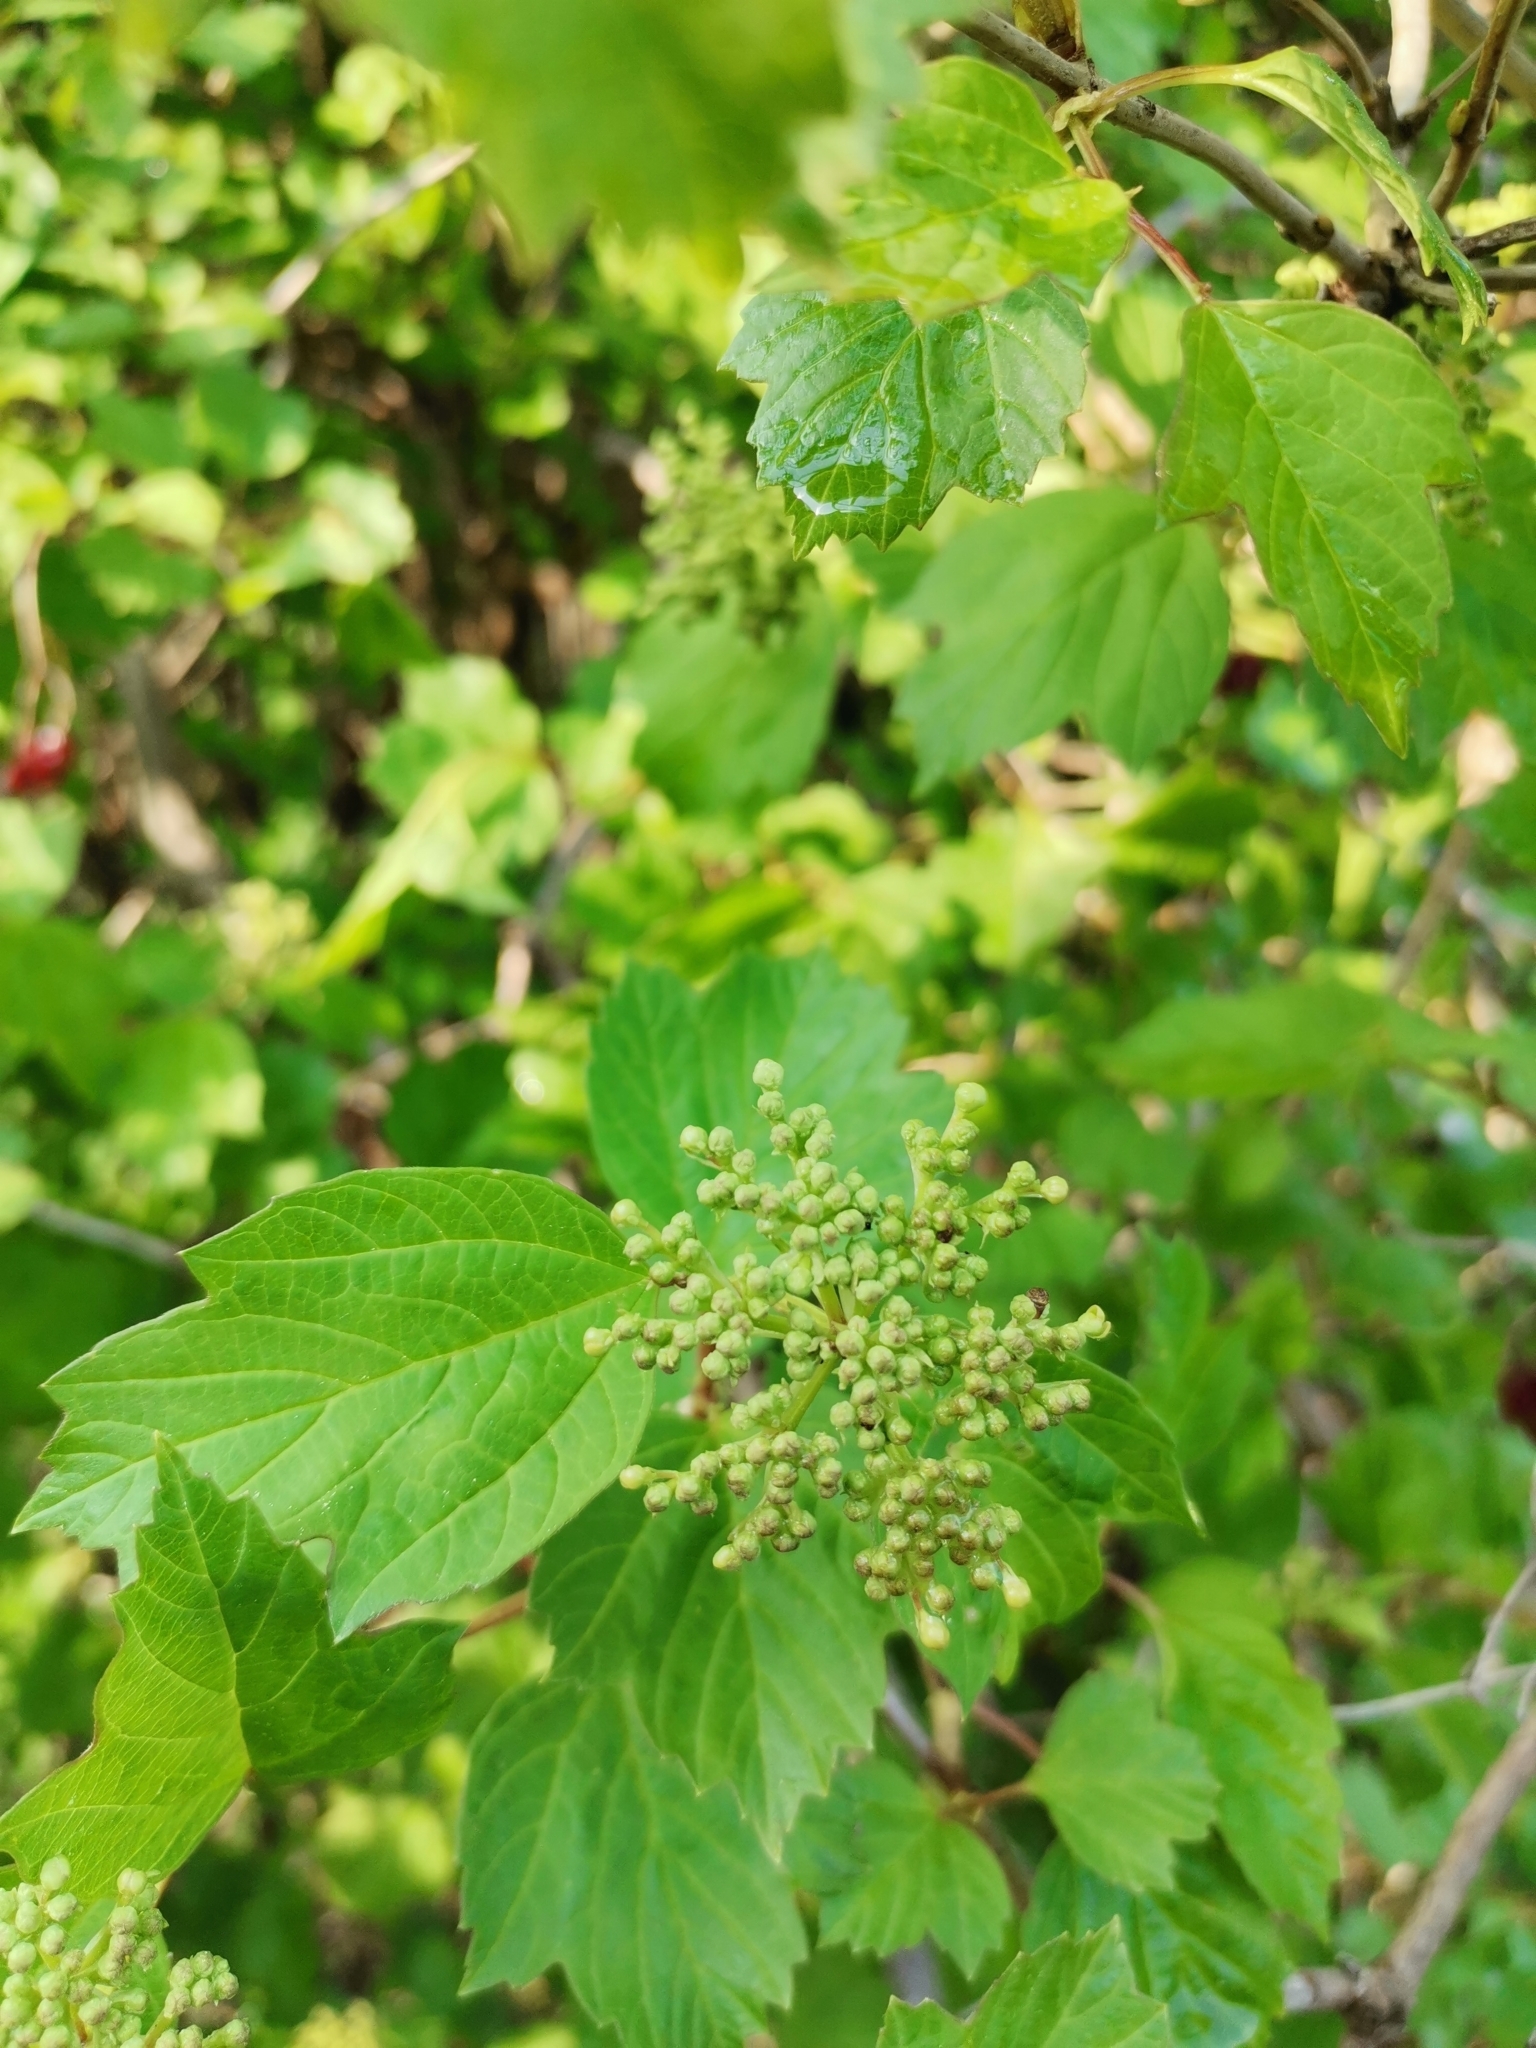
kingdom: Plantae
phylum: Tracheophyta
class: Magnoliopsida
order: Dipsacales
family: Viburnaceae
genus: Viburnum
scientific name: Viburnum opulus
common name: Guelder-rose
